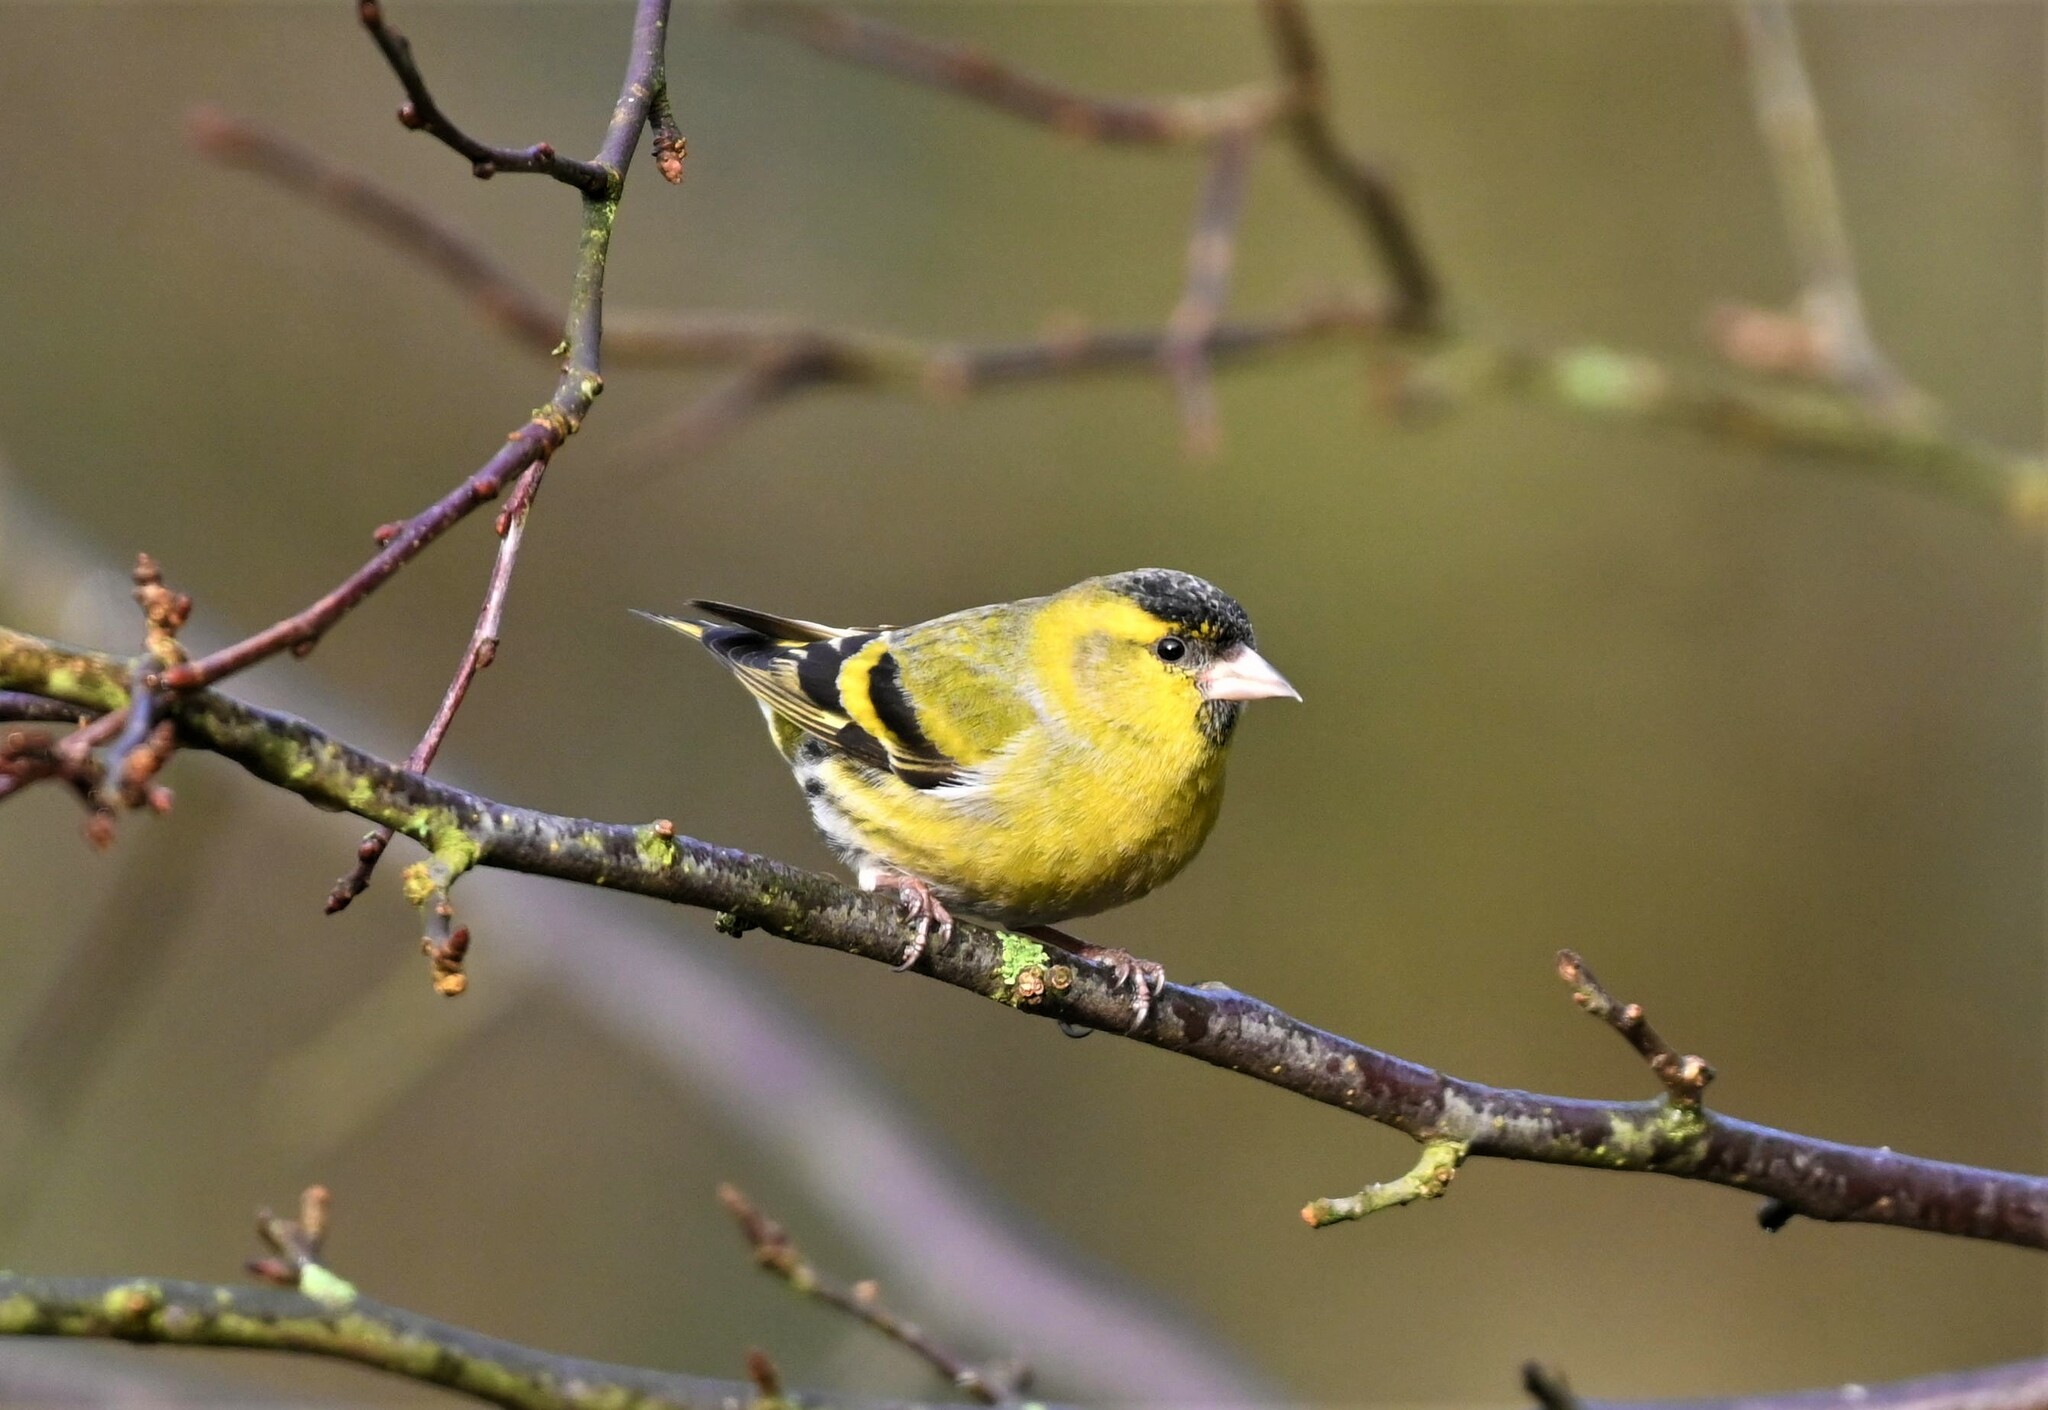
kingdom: Animalia
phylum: Chordata
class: Aves
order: Passeriformes
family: Fringillidae
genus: Spinus
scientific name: Spinus spinus
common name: Eurasian siskin
